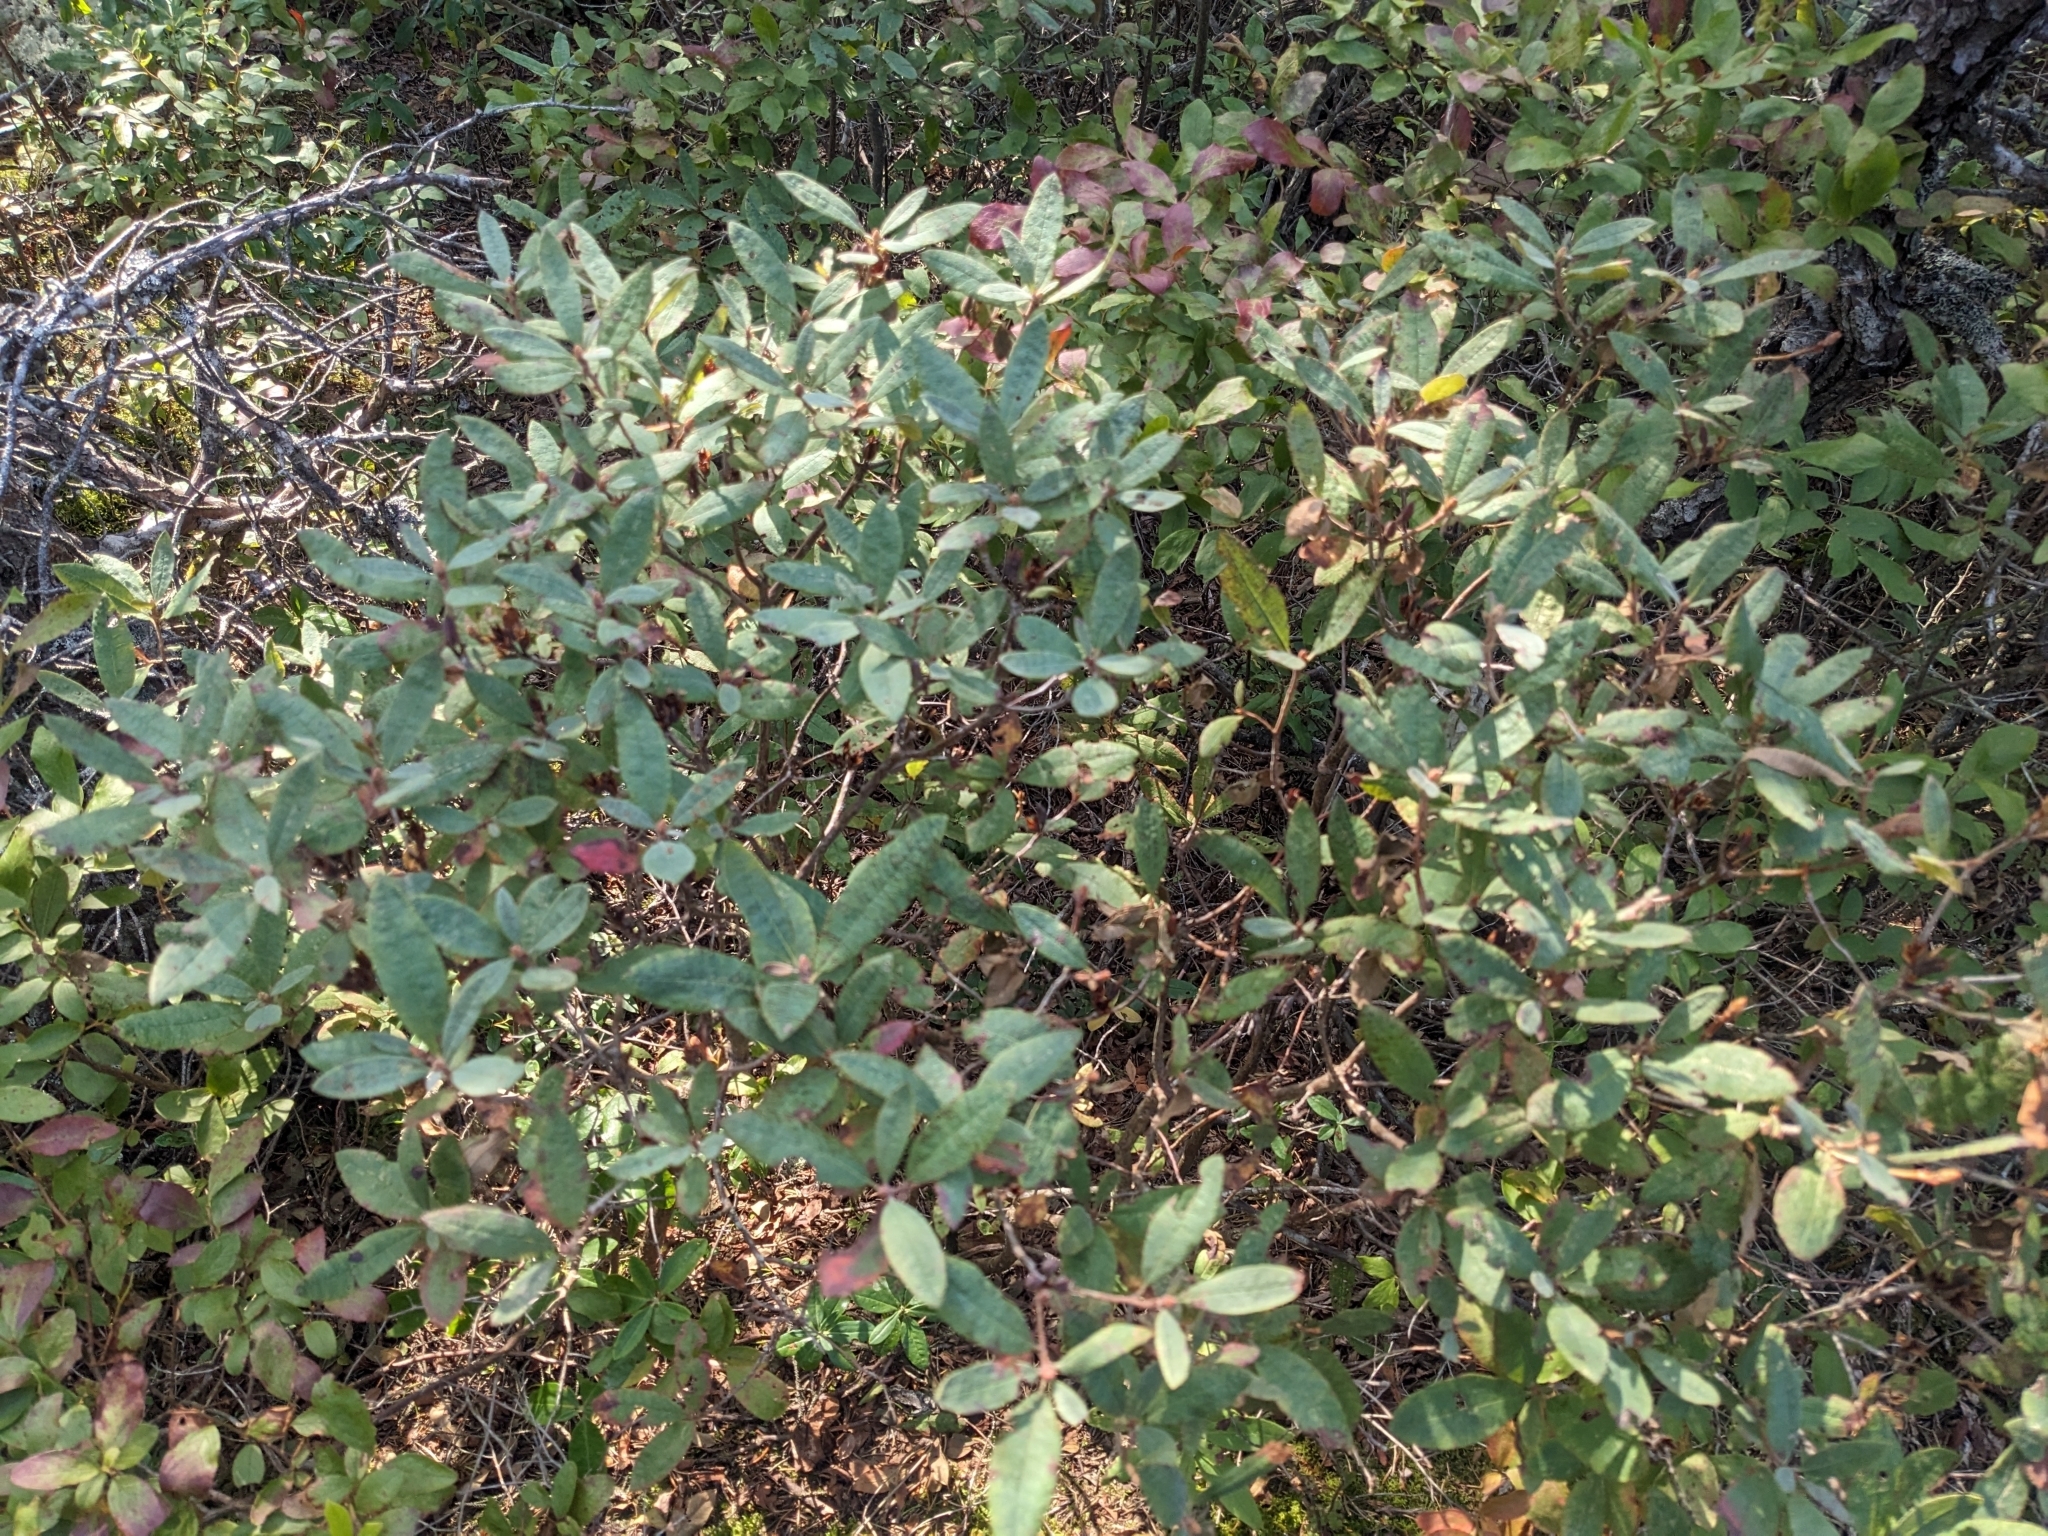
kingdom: Plantae
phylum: Tracheophyta
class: Magnoliopsida
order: Ericales
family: Ericaceae
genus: Rhododendron
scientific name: Rhododendron canadense
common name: Rhodora
